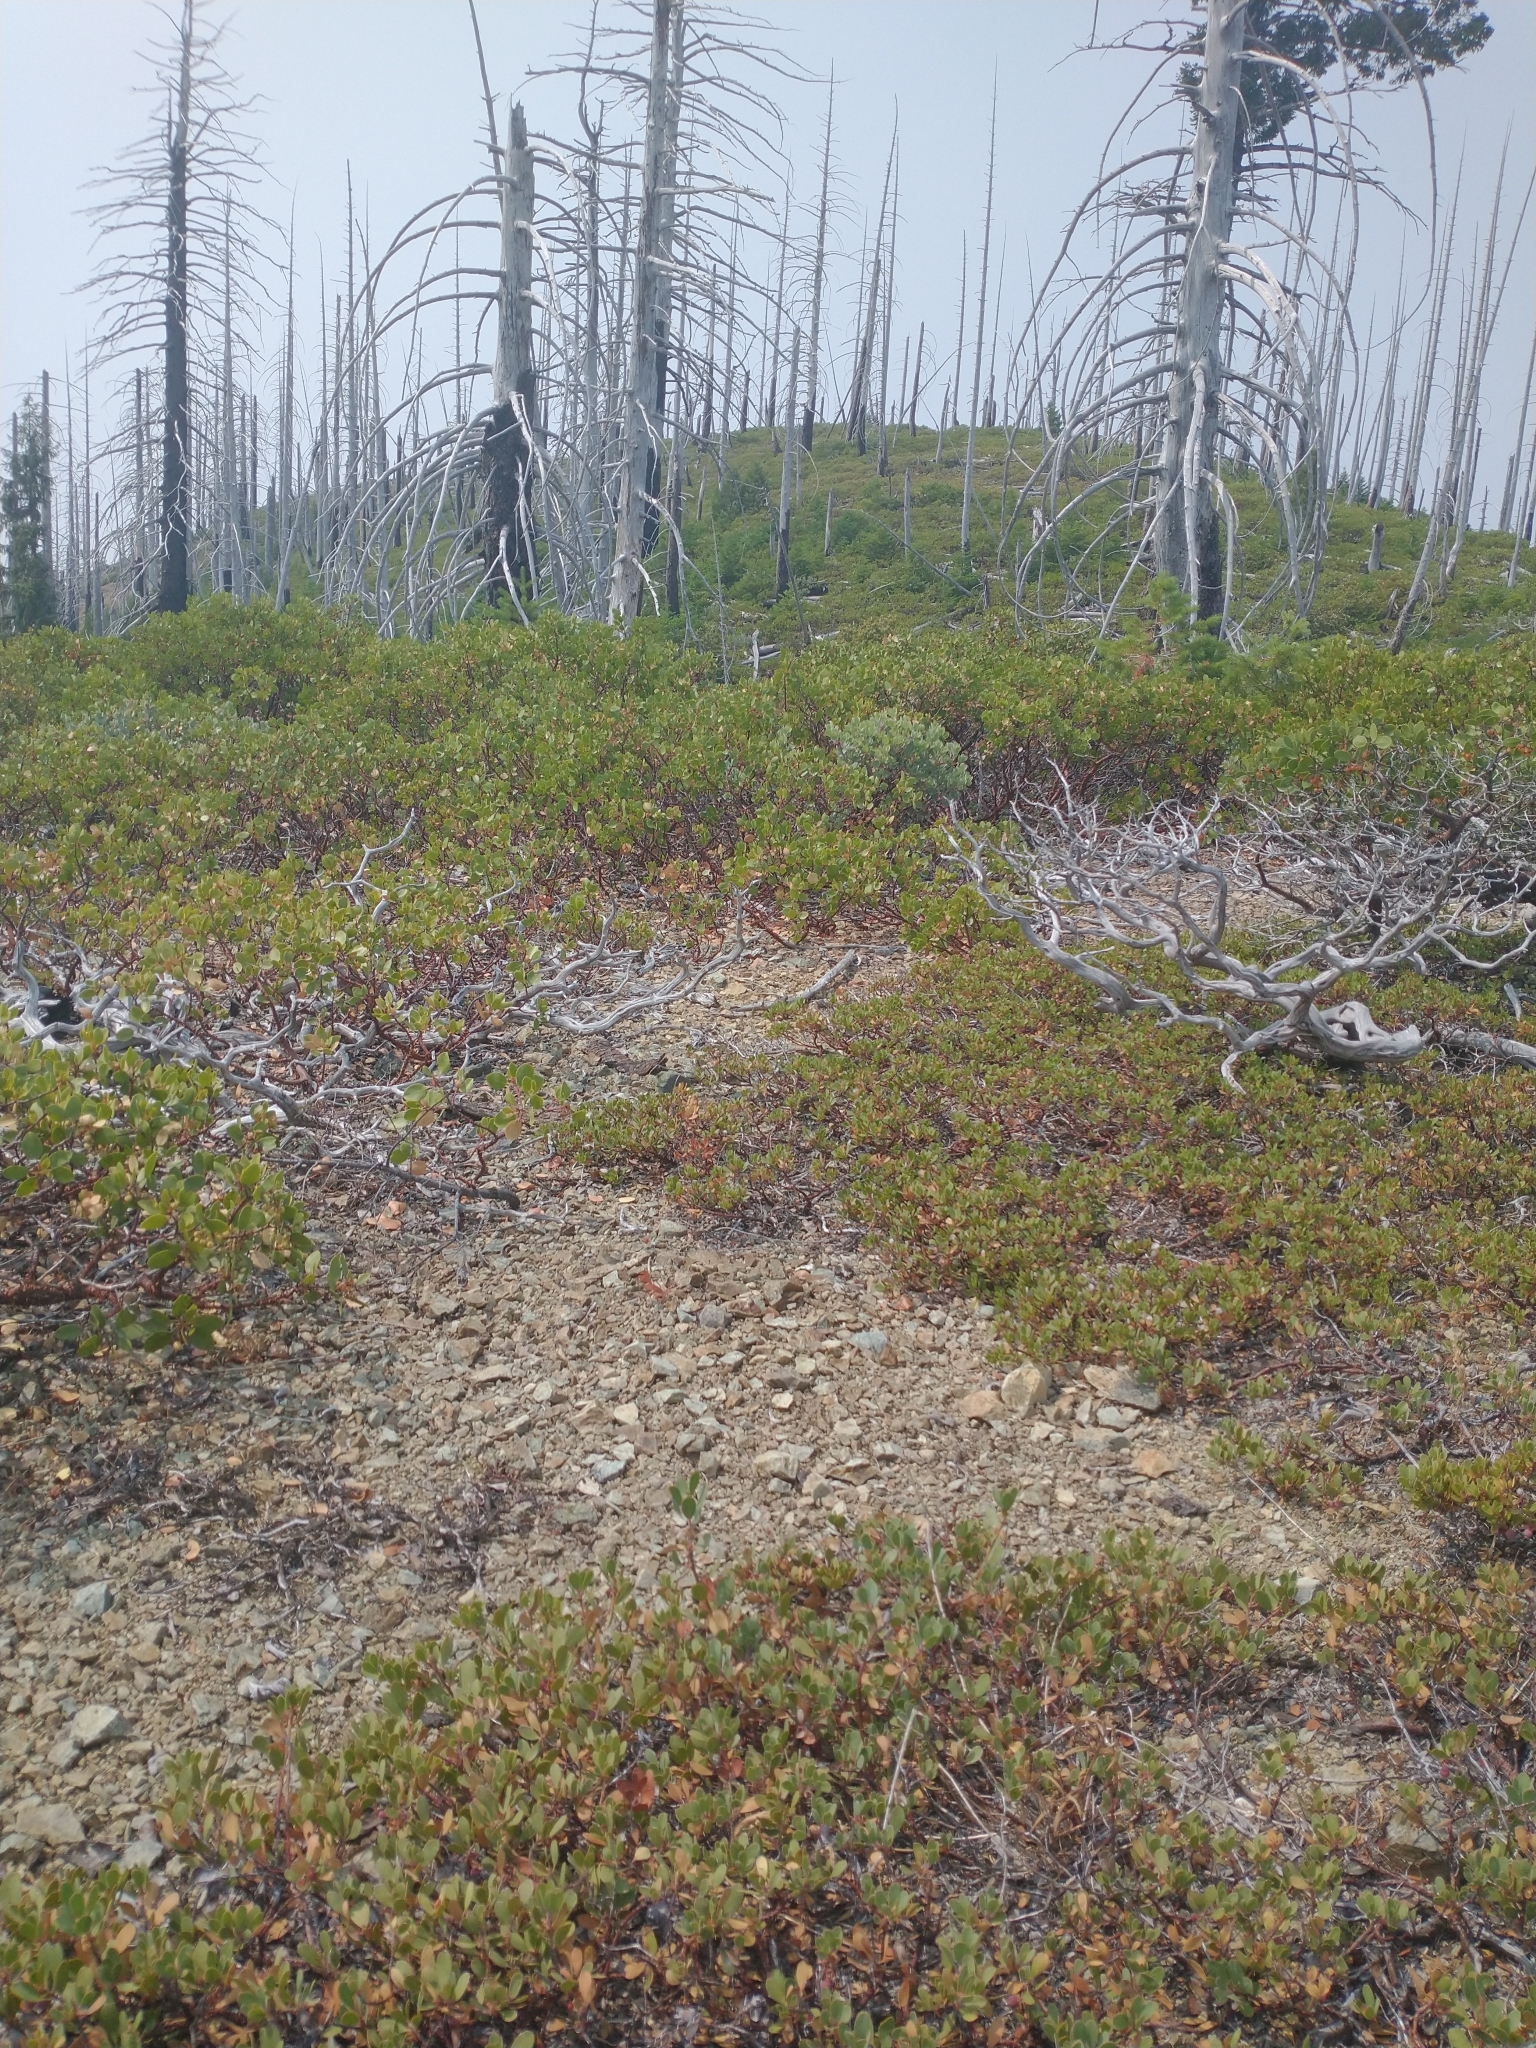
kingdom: Plantae
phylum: Tracheophyta
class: Magnoliopsida
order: Ericales
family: Ericaceae
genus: Arctostaphylos
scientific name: Arctostaphylos nevadensis
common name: Pinemat manzanita
